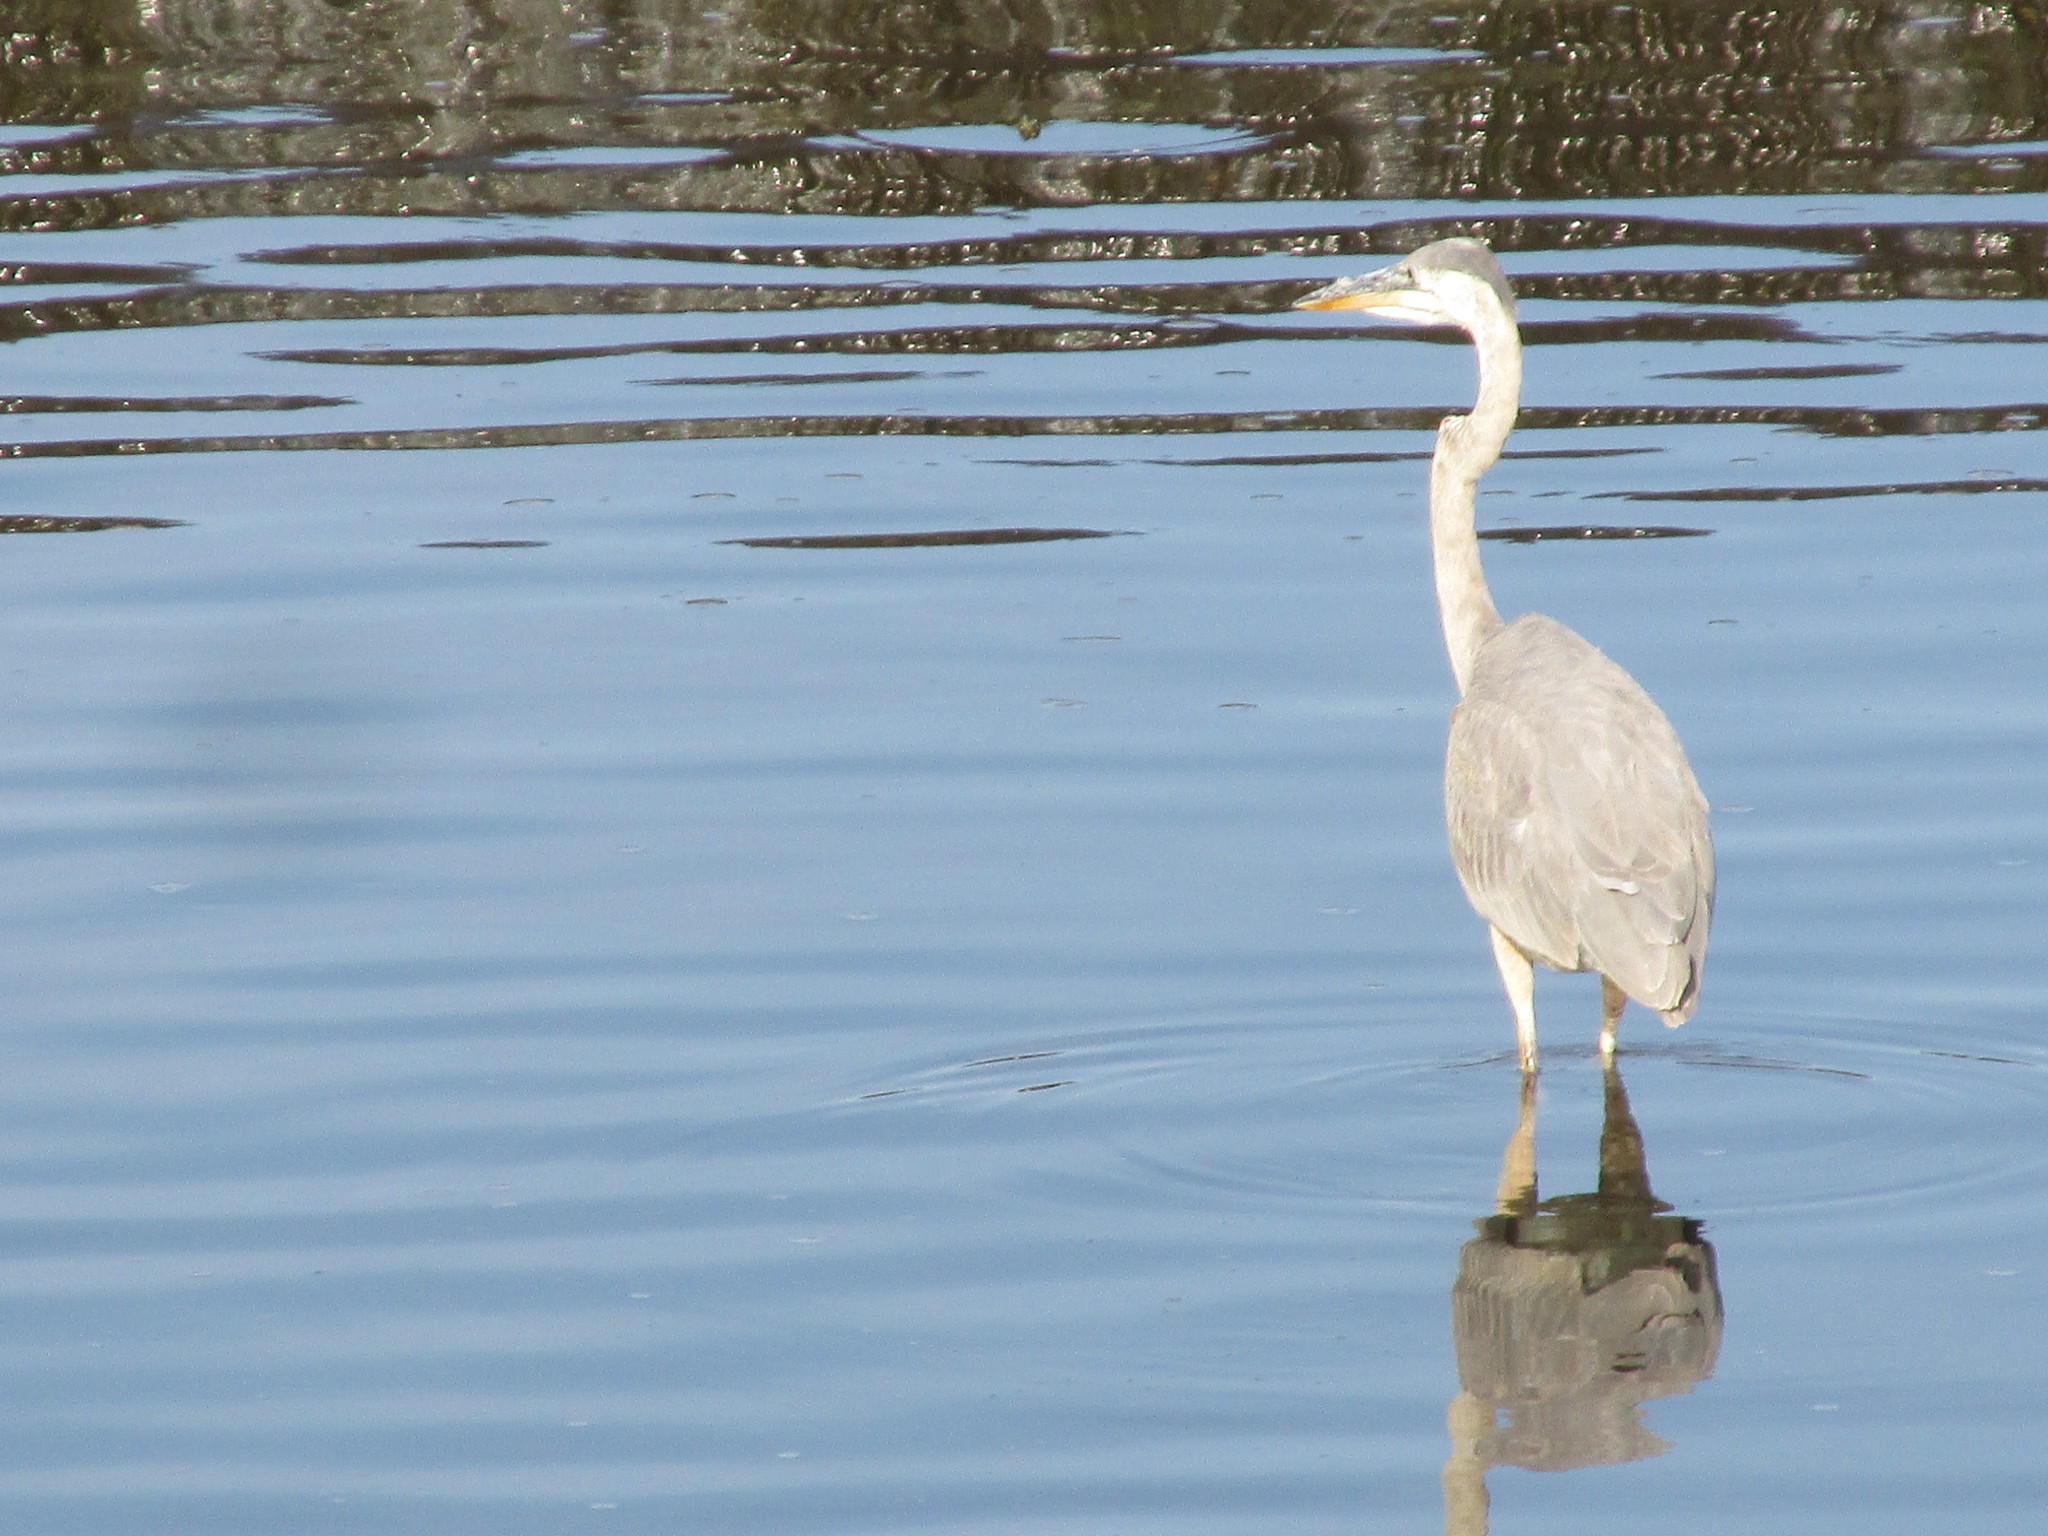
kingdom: Animalia
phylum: Chordata
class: Aves
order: Pelecaniformes
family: Ardeidae
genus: Ardea
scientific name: Ardea herodias
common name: Great blue heron
